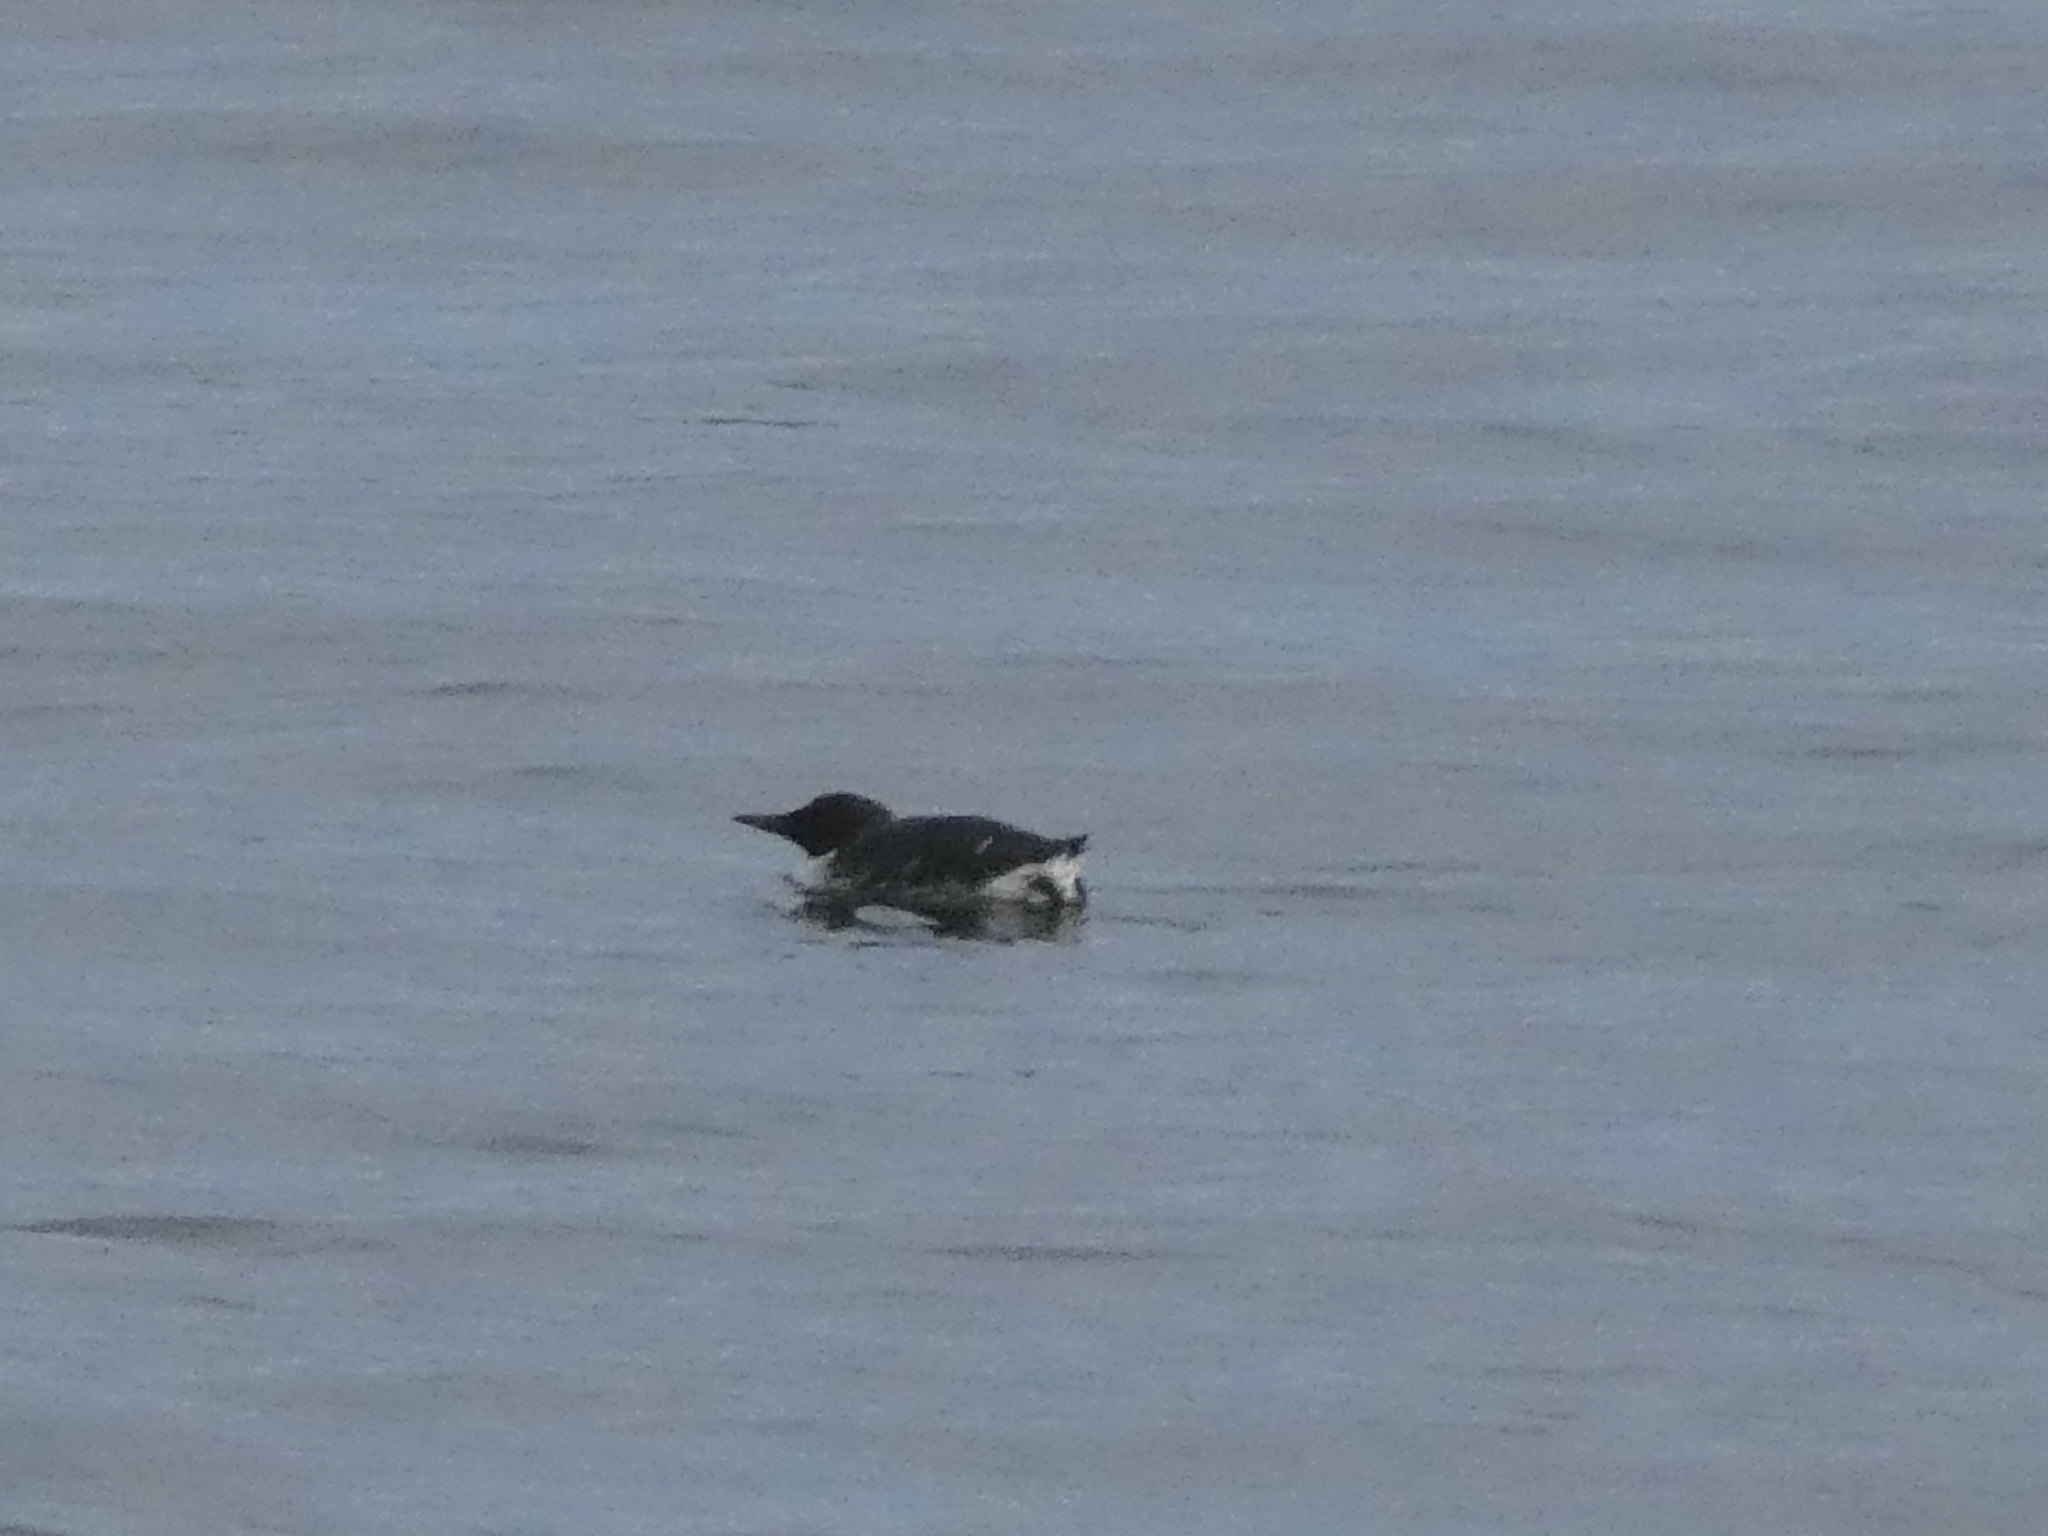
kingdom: Animalia
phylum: Chordata
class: Aves
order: Charadriiformes
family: Alcidae
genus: Uria
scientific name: Uria aalge
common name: Common murre
